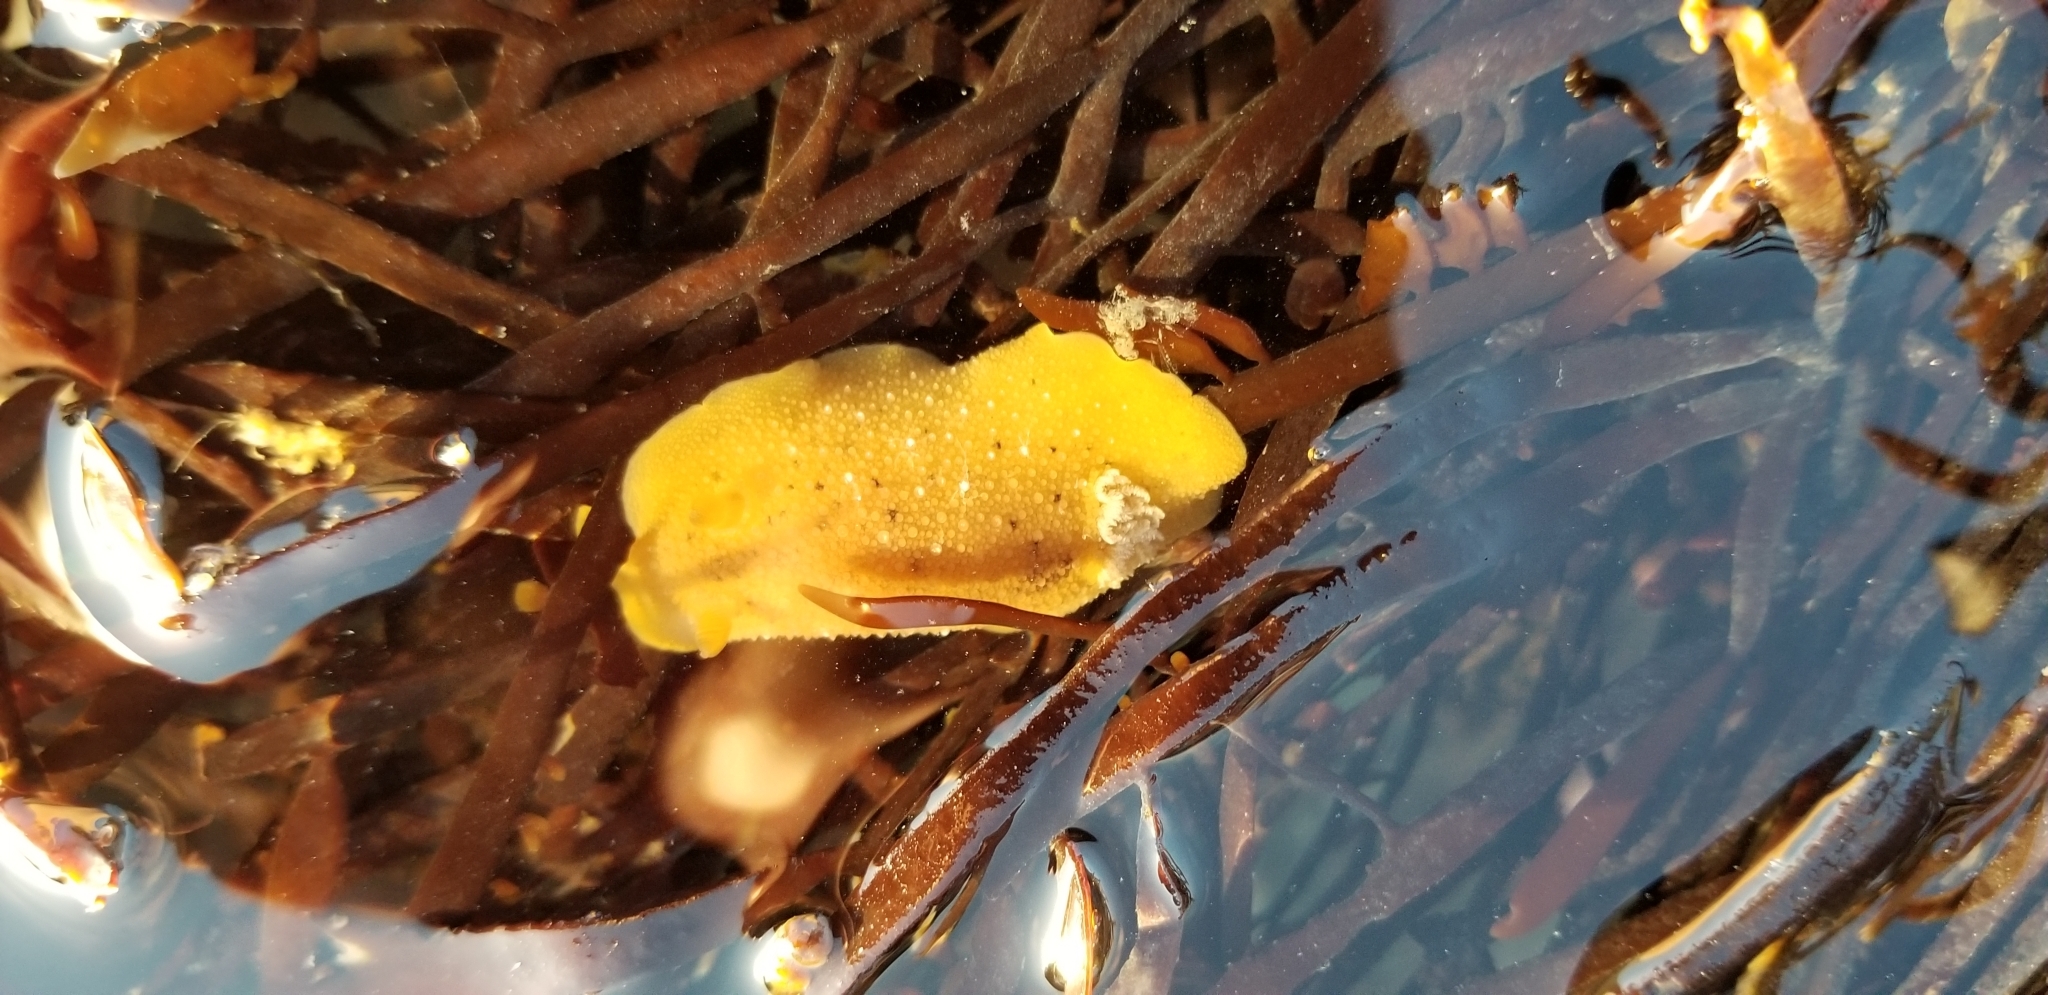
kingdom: Animalia
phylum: Mollusca
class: Gastropoda
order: Nudibranchia
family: Discodorididae
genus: Geitodoris
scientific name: Geitodoris heathi
